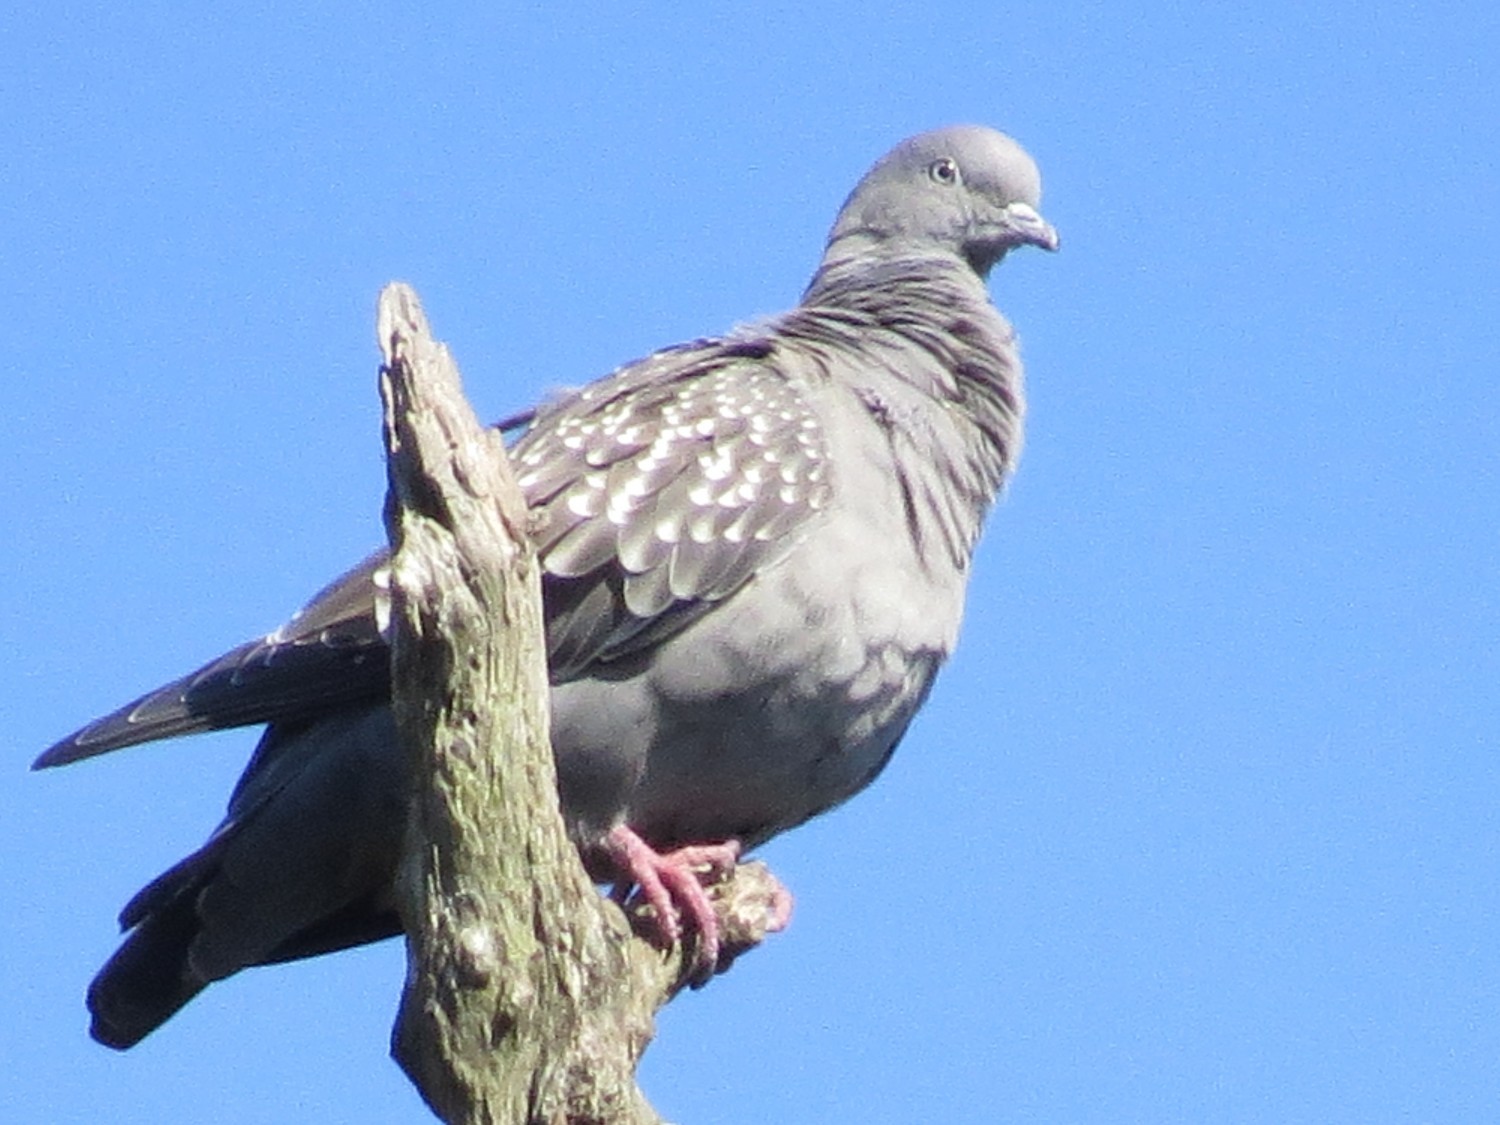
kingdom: Animalia
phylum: Chordata
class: Aves
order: Columbiformes
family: Columbidae
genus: Patagioenas
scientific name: Patagioenas maculosa
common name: Spot-winged pigeon
